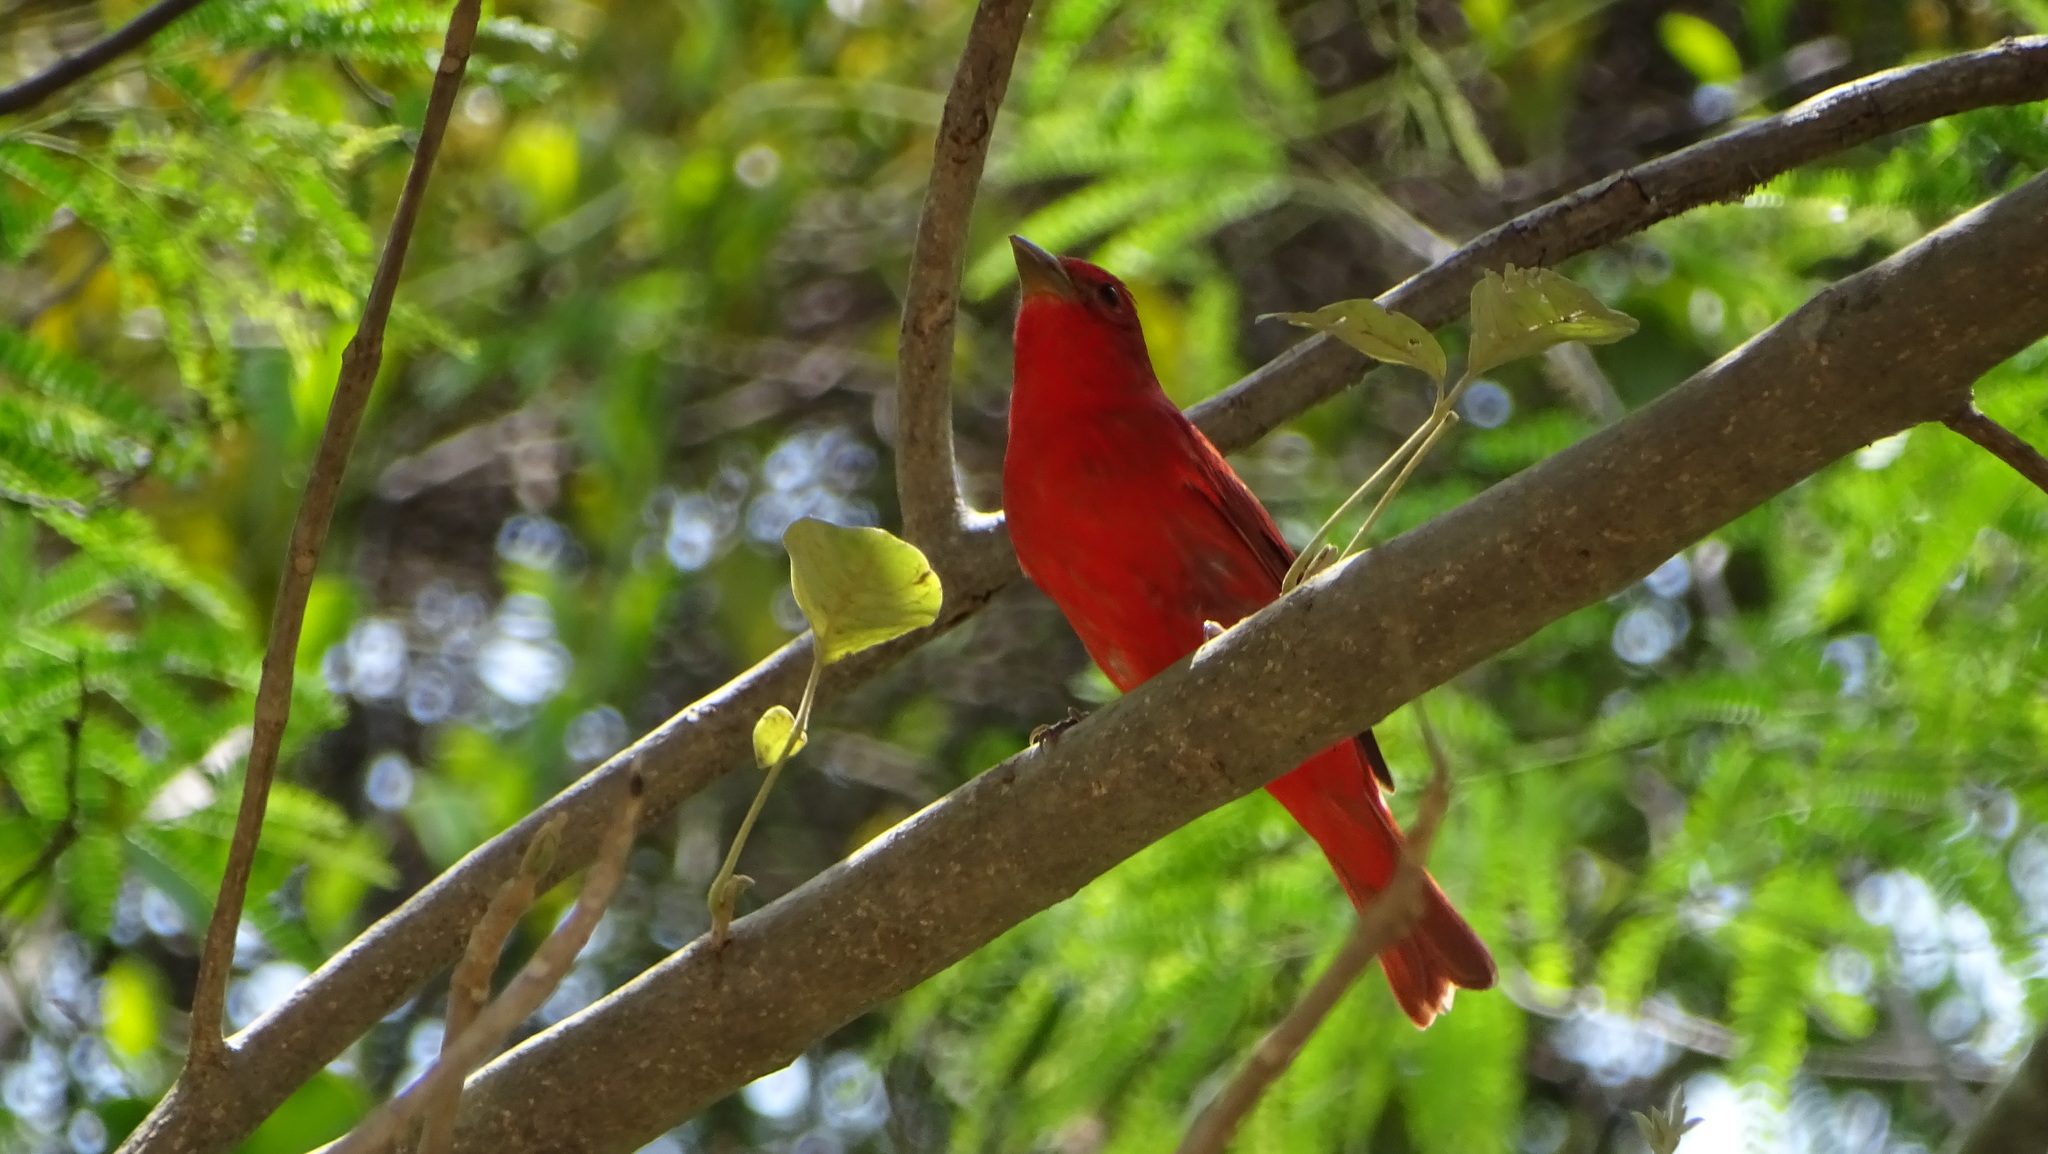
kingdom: Animalia
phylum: Chordata
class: Aves
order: Passeriformes
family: Cardinalidae
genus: Piranga
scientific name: Piranga rubra
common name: Summer tanager
